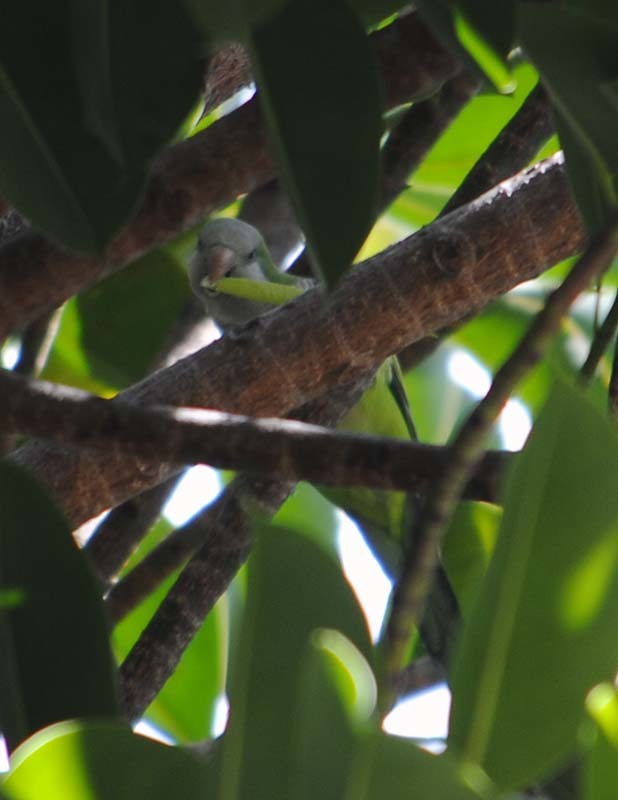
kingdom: Animalia
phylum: Chordata
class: Aves
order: Psittaciformes
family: Psittacidae
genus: Myiopsitta
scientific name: Myiopsitta monachus
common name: Monk parakeet
